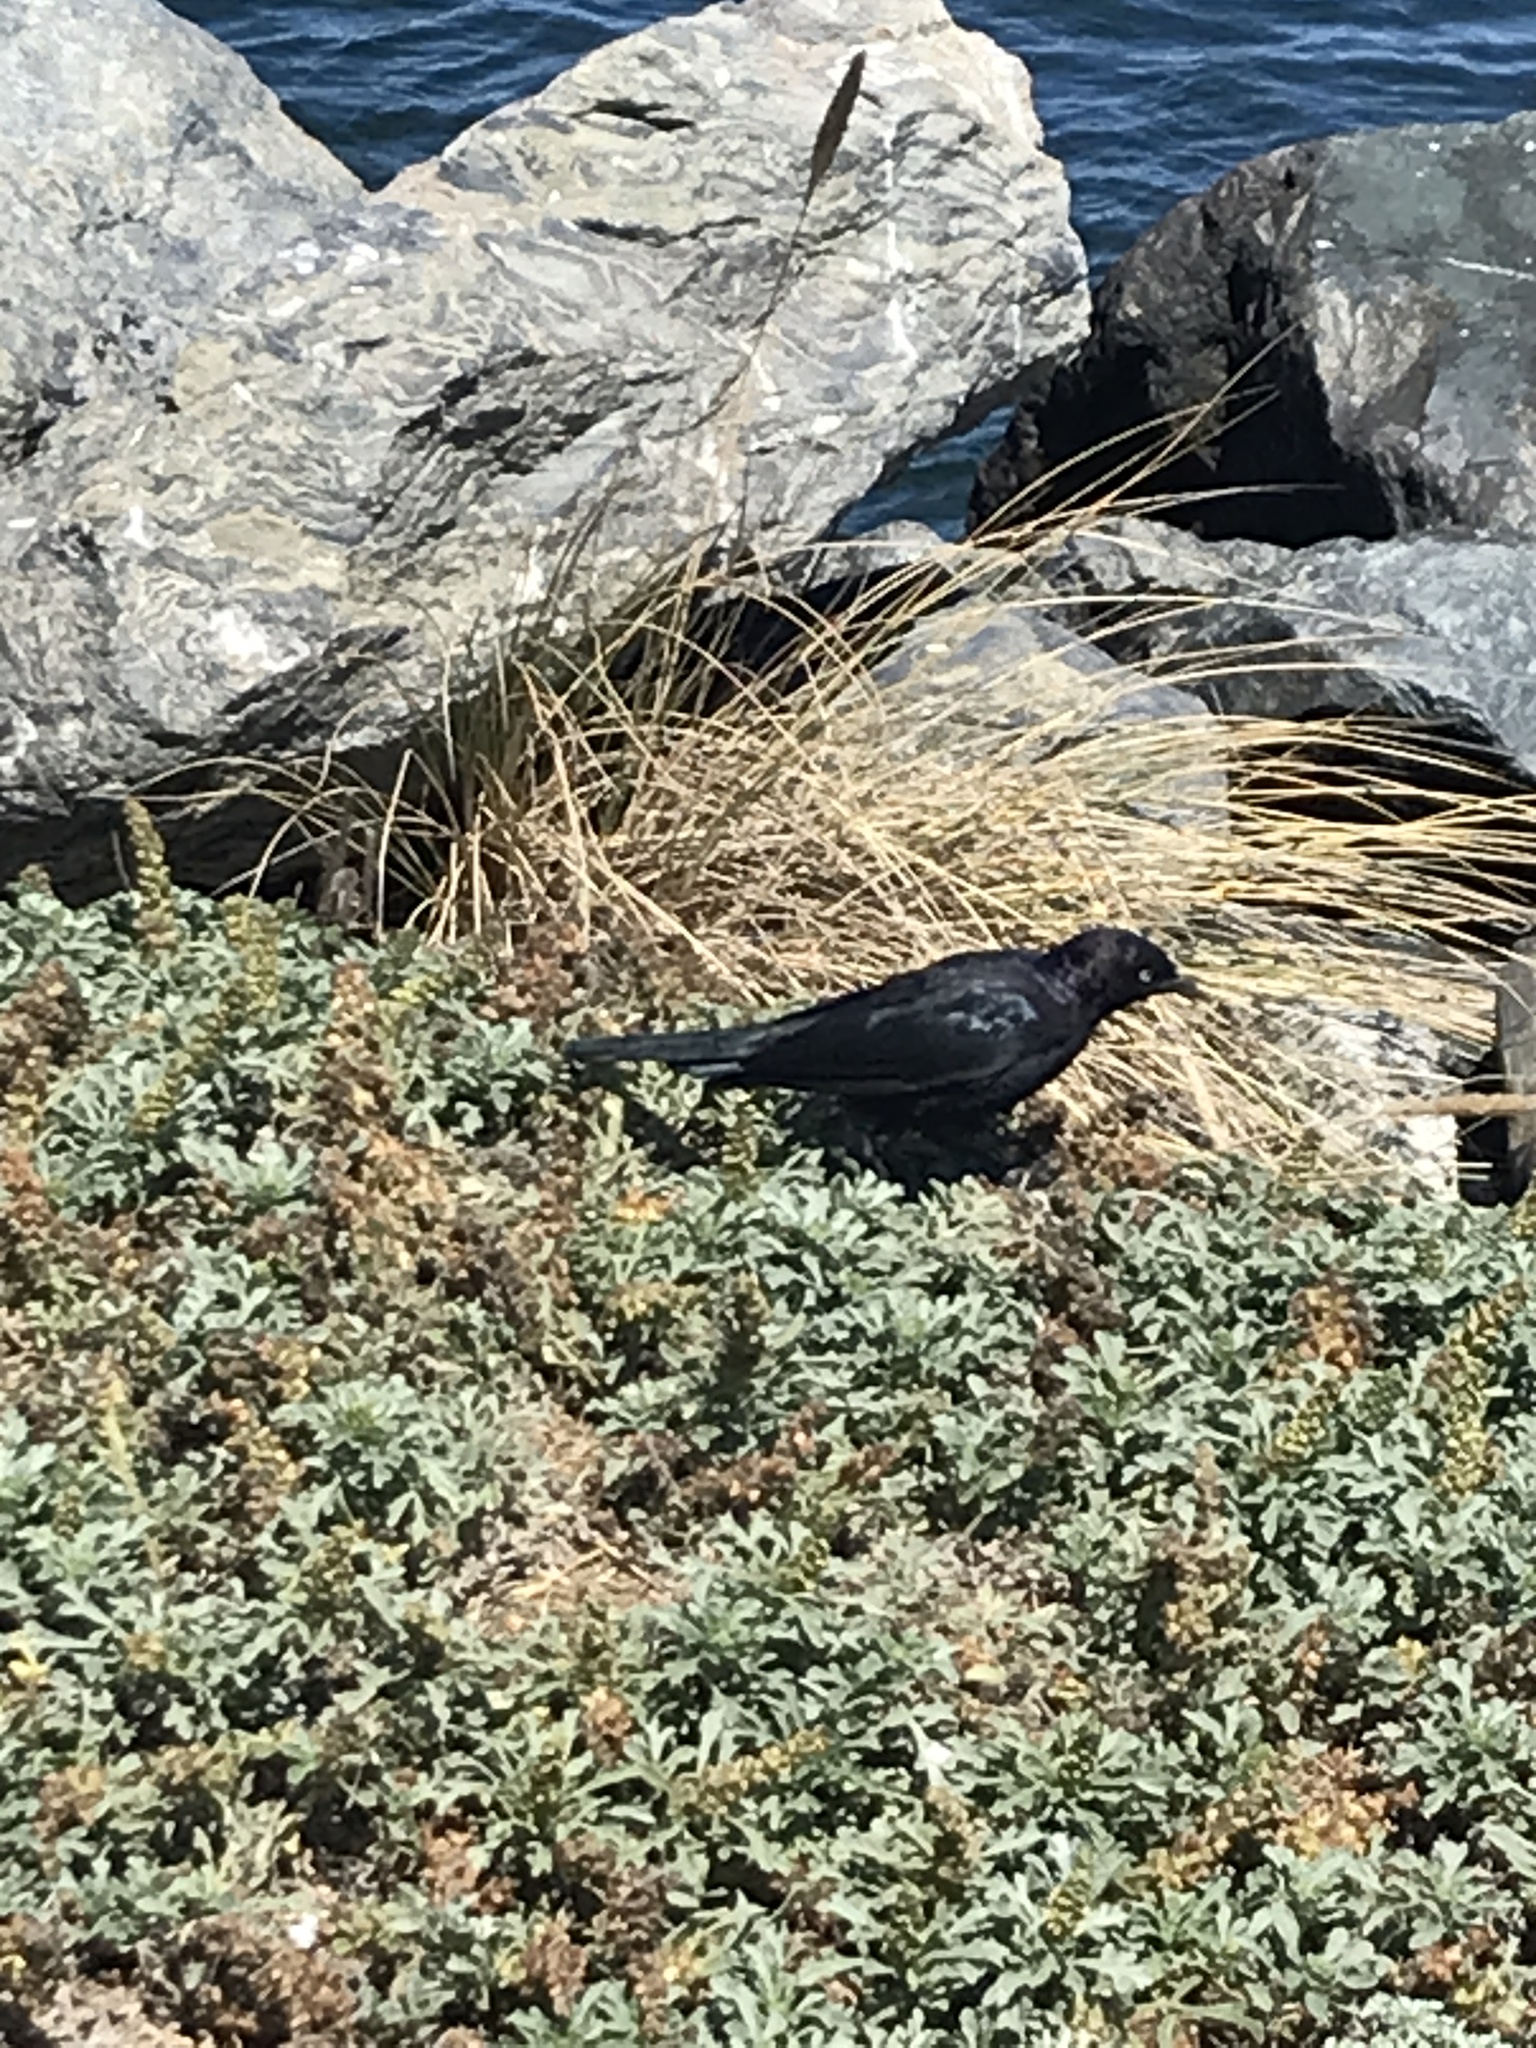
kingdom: Animalia
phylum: Chordata
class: Aves
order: Passeriformes
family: Icteridae
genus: Euphagus
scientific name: Euphagus cyanocephalus
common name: Brewer's blackbird
